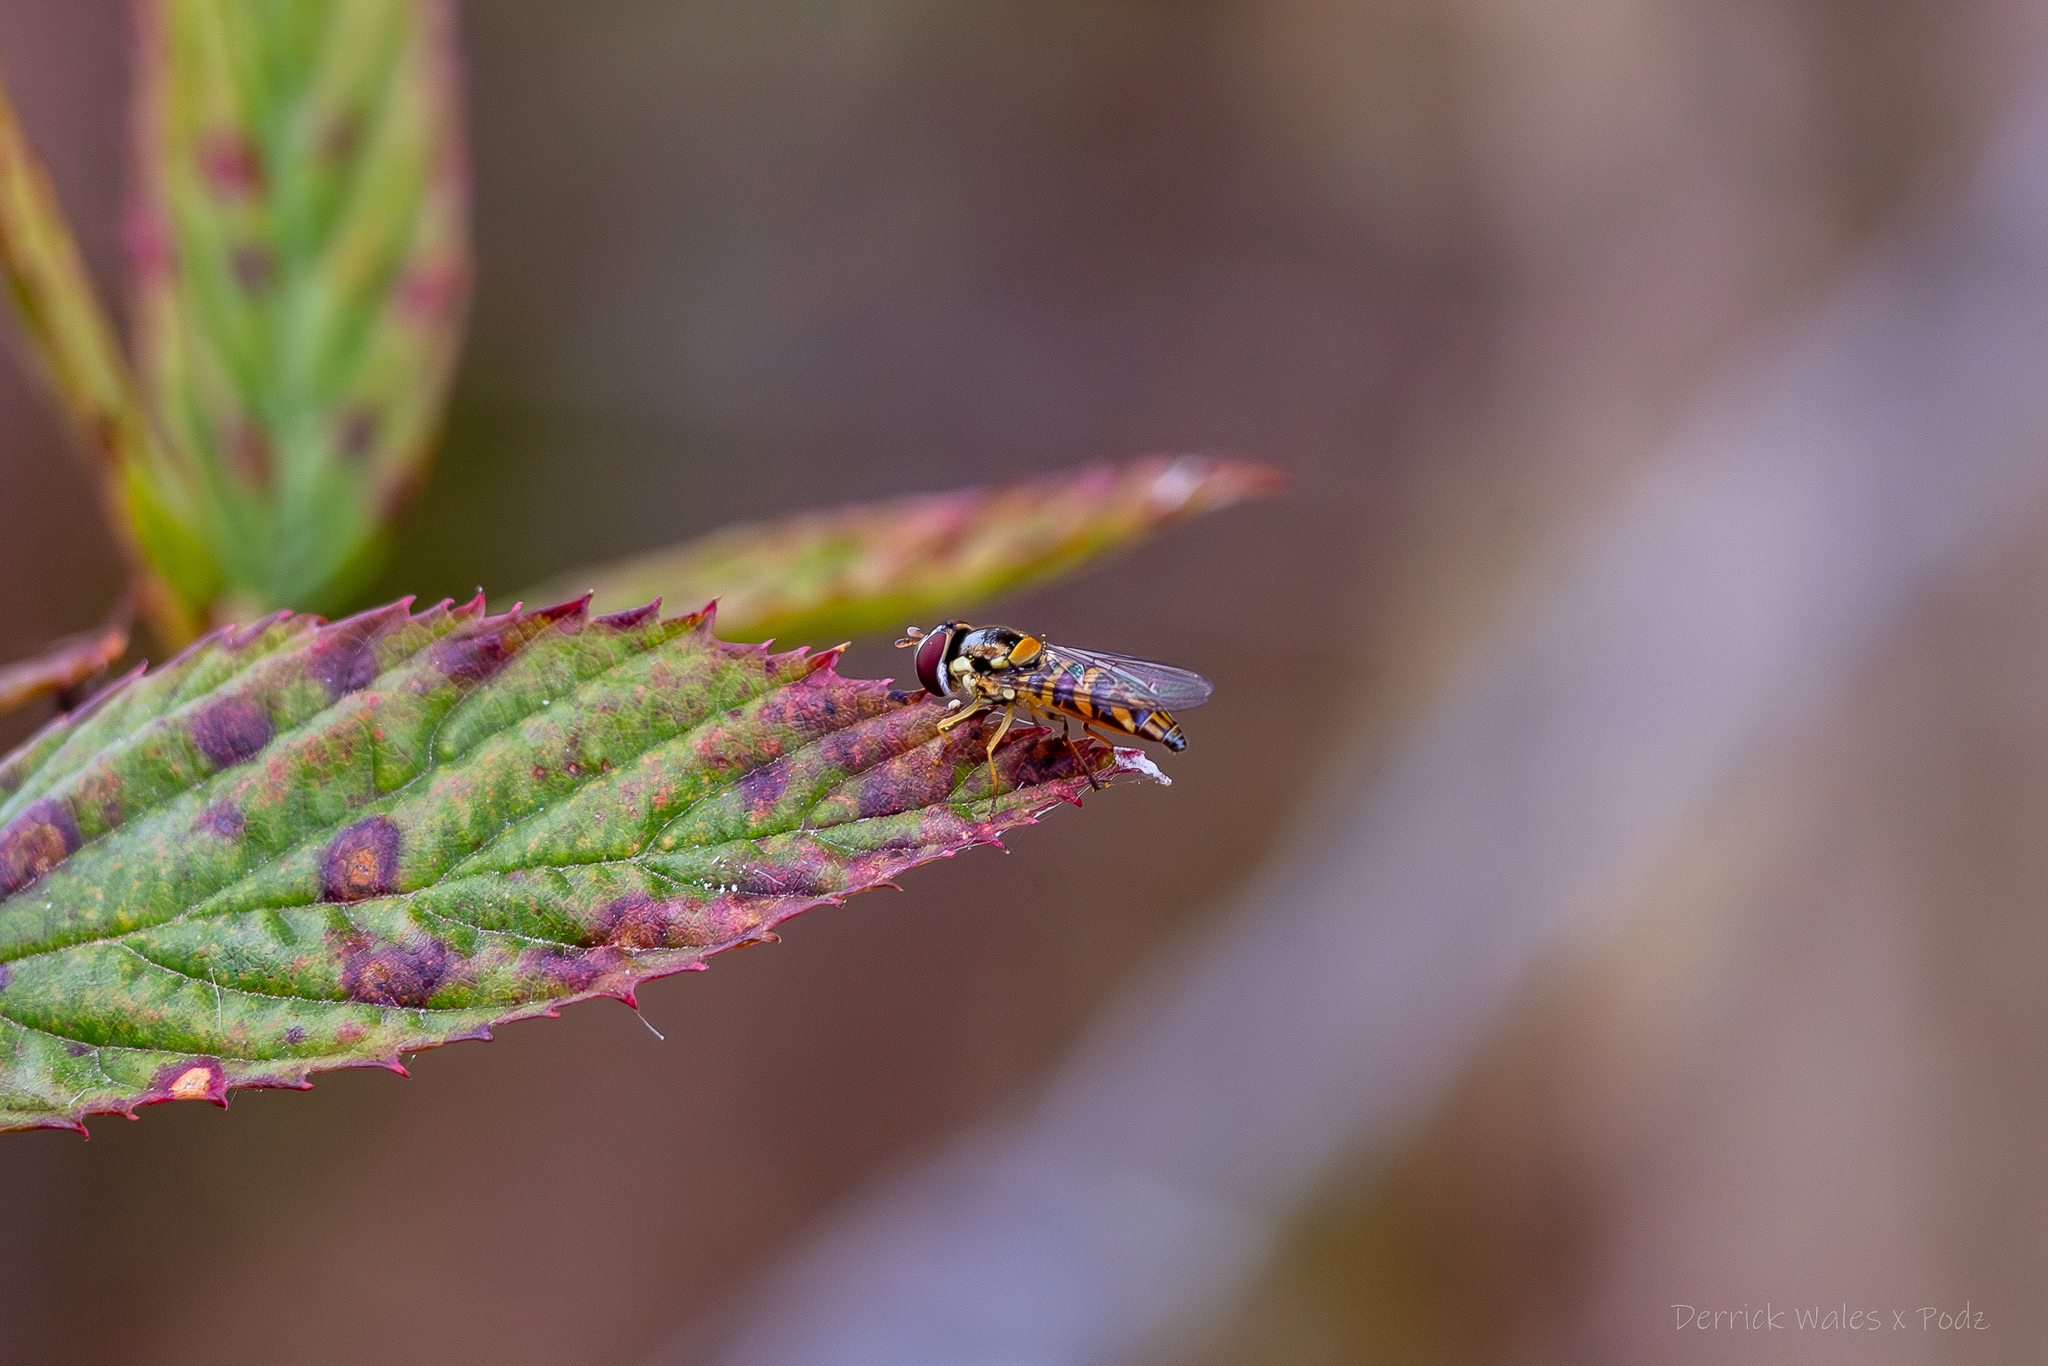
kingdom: Animalia
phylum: Arthropoda
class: Insecta
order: Diptera
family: Syrphidae
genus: Allograpta
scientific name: Allograpta obliqua
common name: Common oblique syrphid
